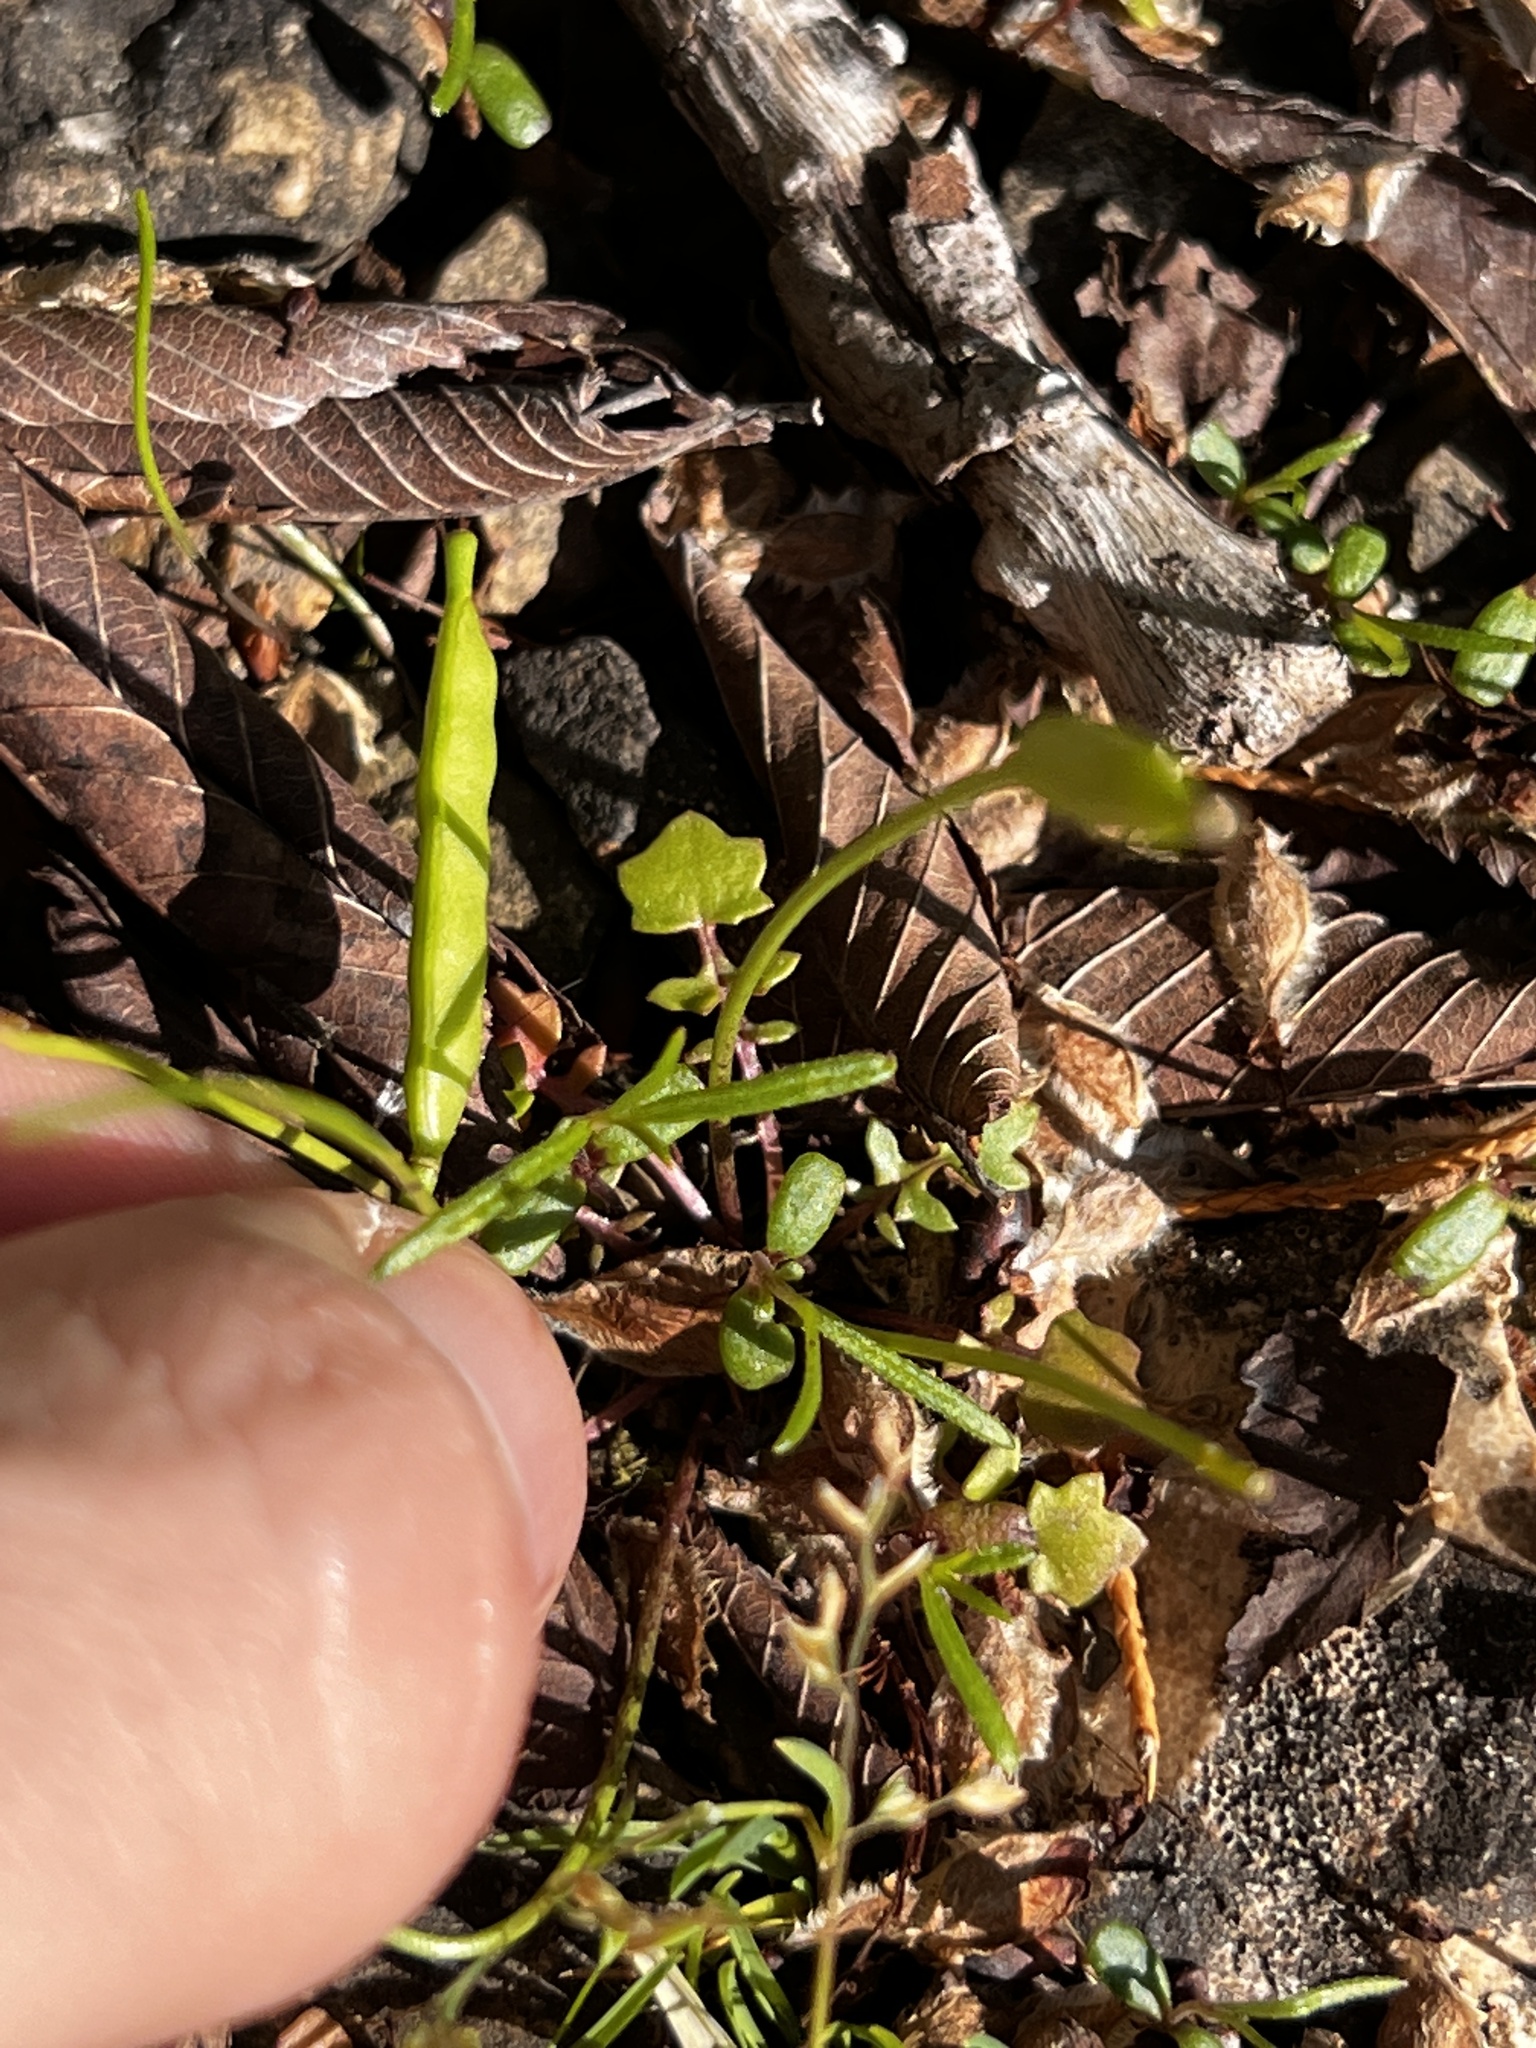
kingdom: Plantae
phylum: Tracheophyta
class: Magnoliopsida
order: Brassicales
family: Brassicaceae
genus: Leavenworthia
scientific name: Leavenworthia uniflora
